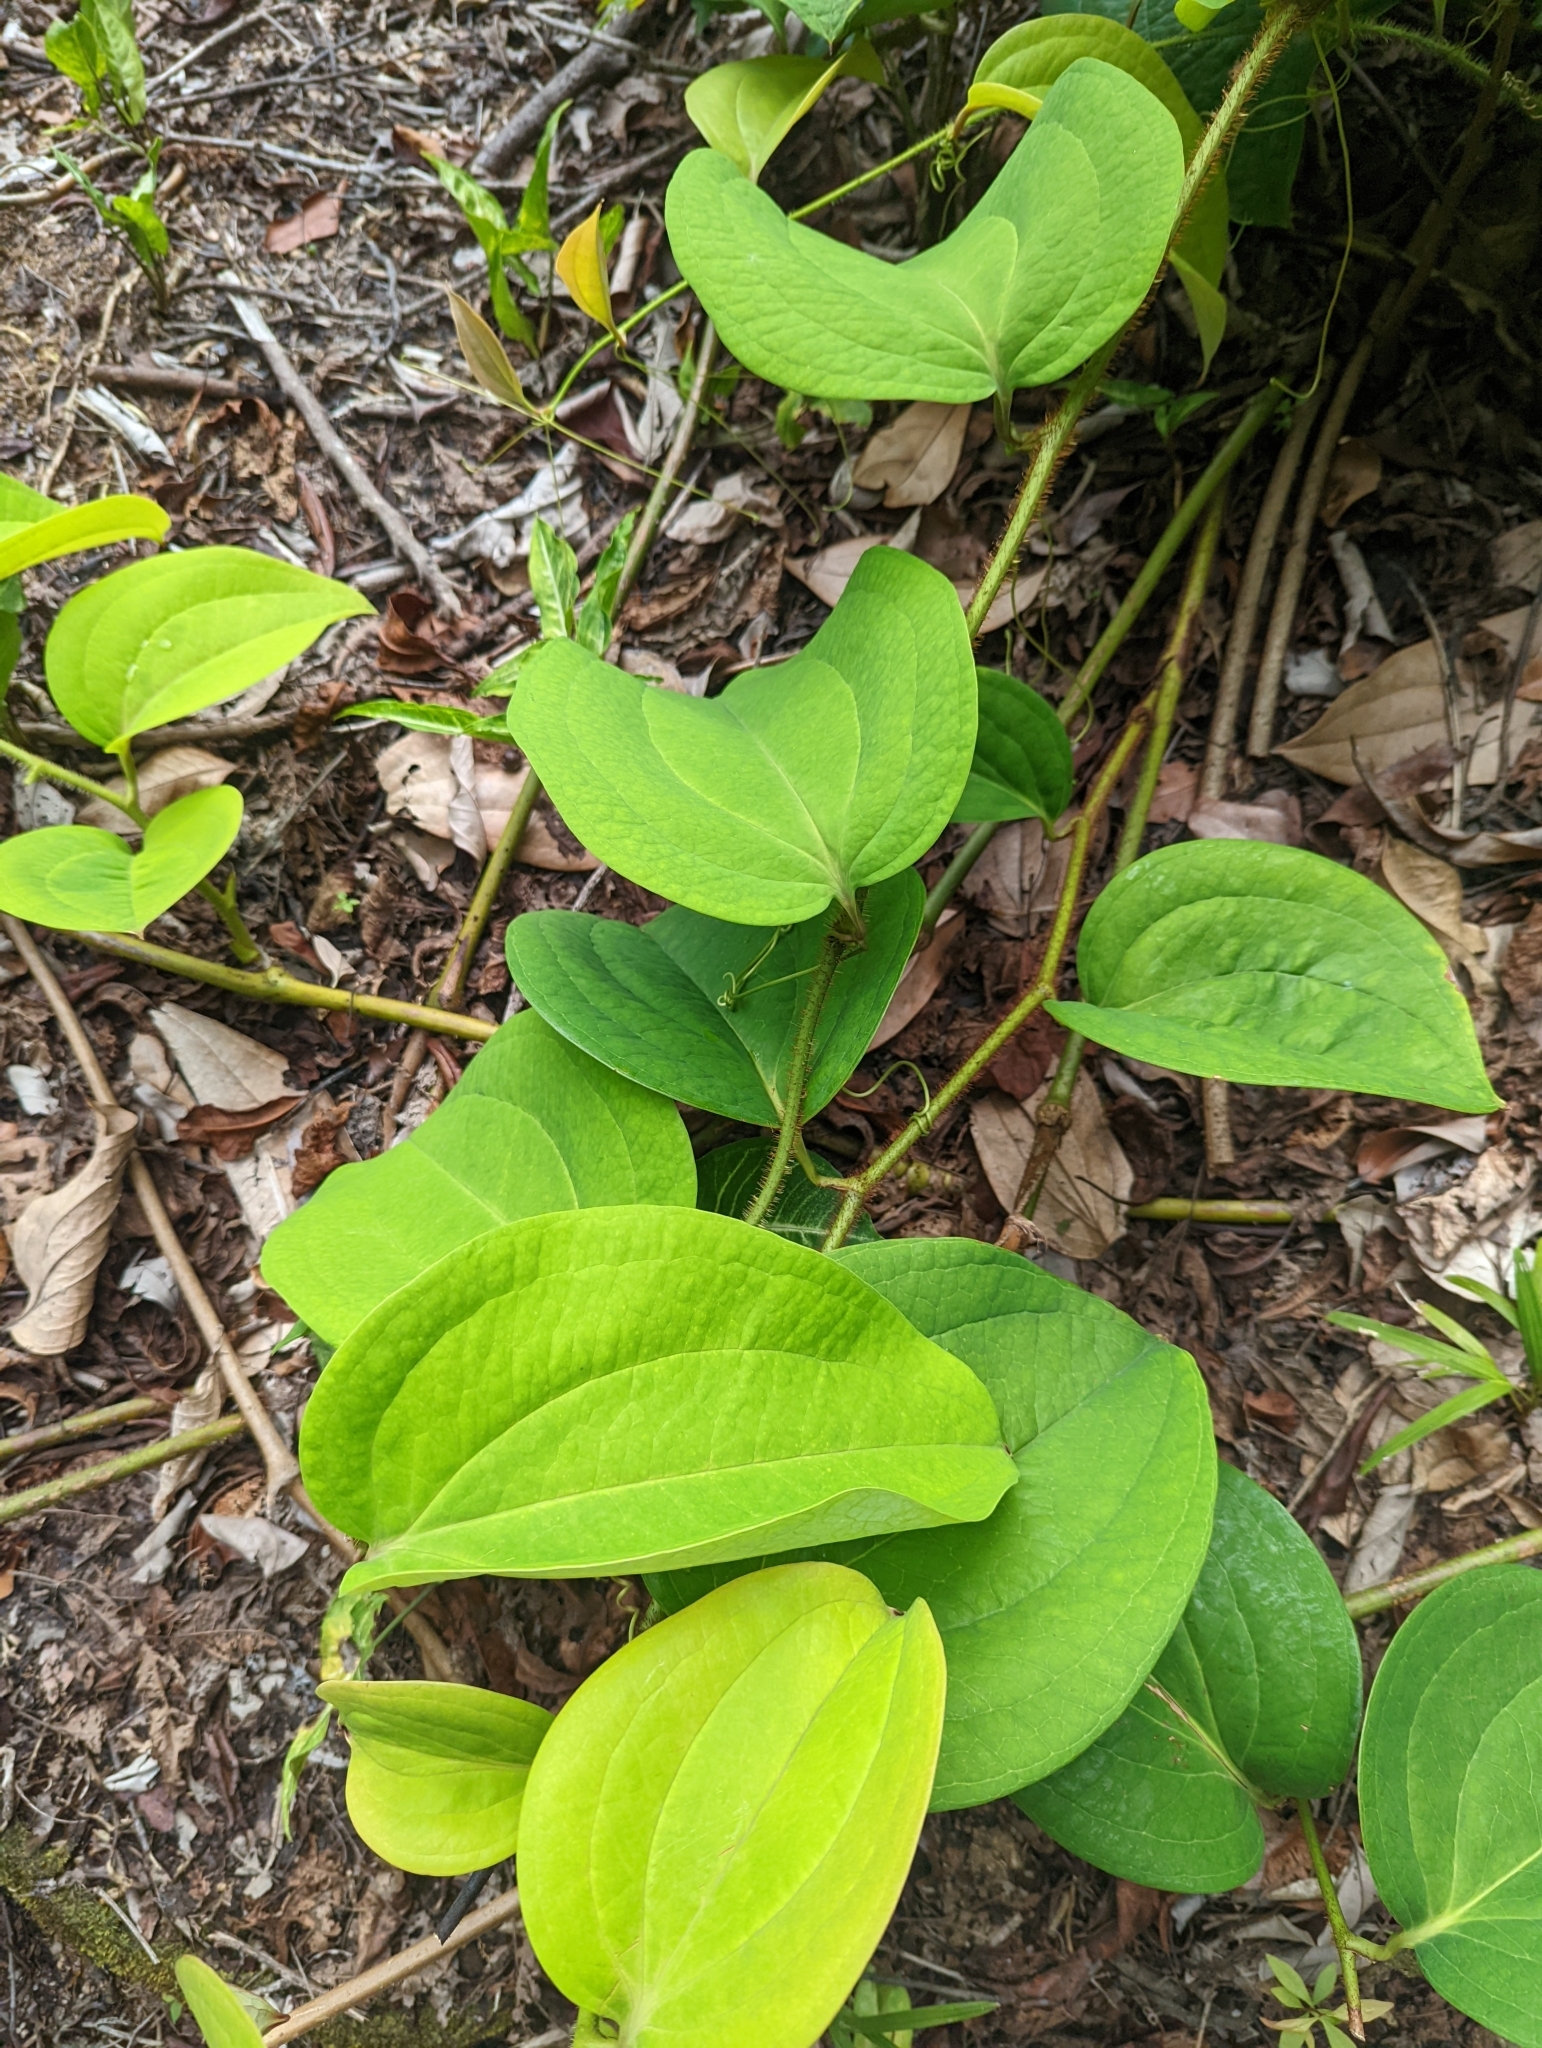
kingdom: Plantae
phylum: Tracheophyta
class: Liliopsida
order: Liliales
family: Smilacaceae
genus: Smilax
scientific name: Smilax bracteata
